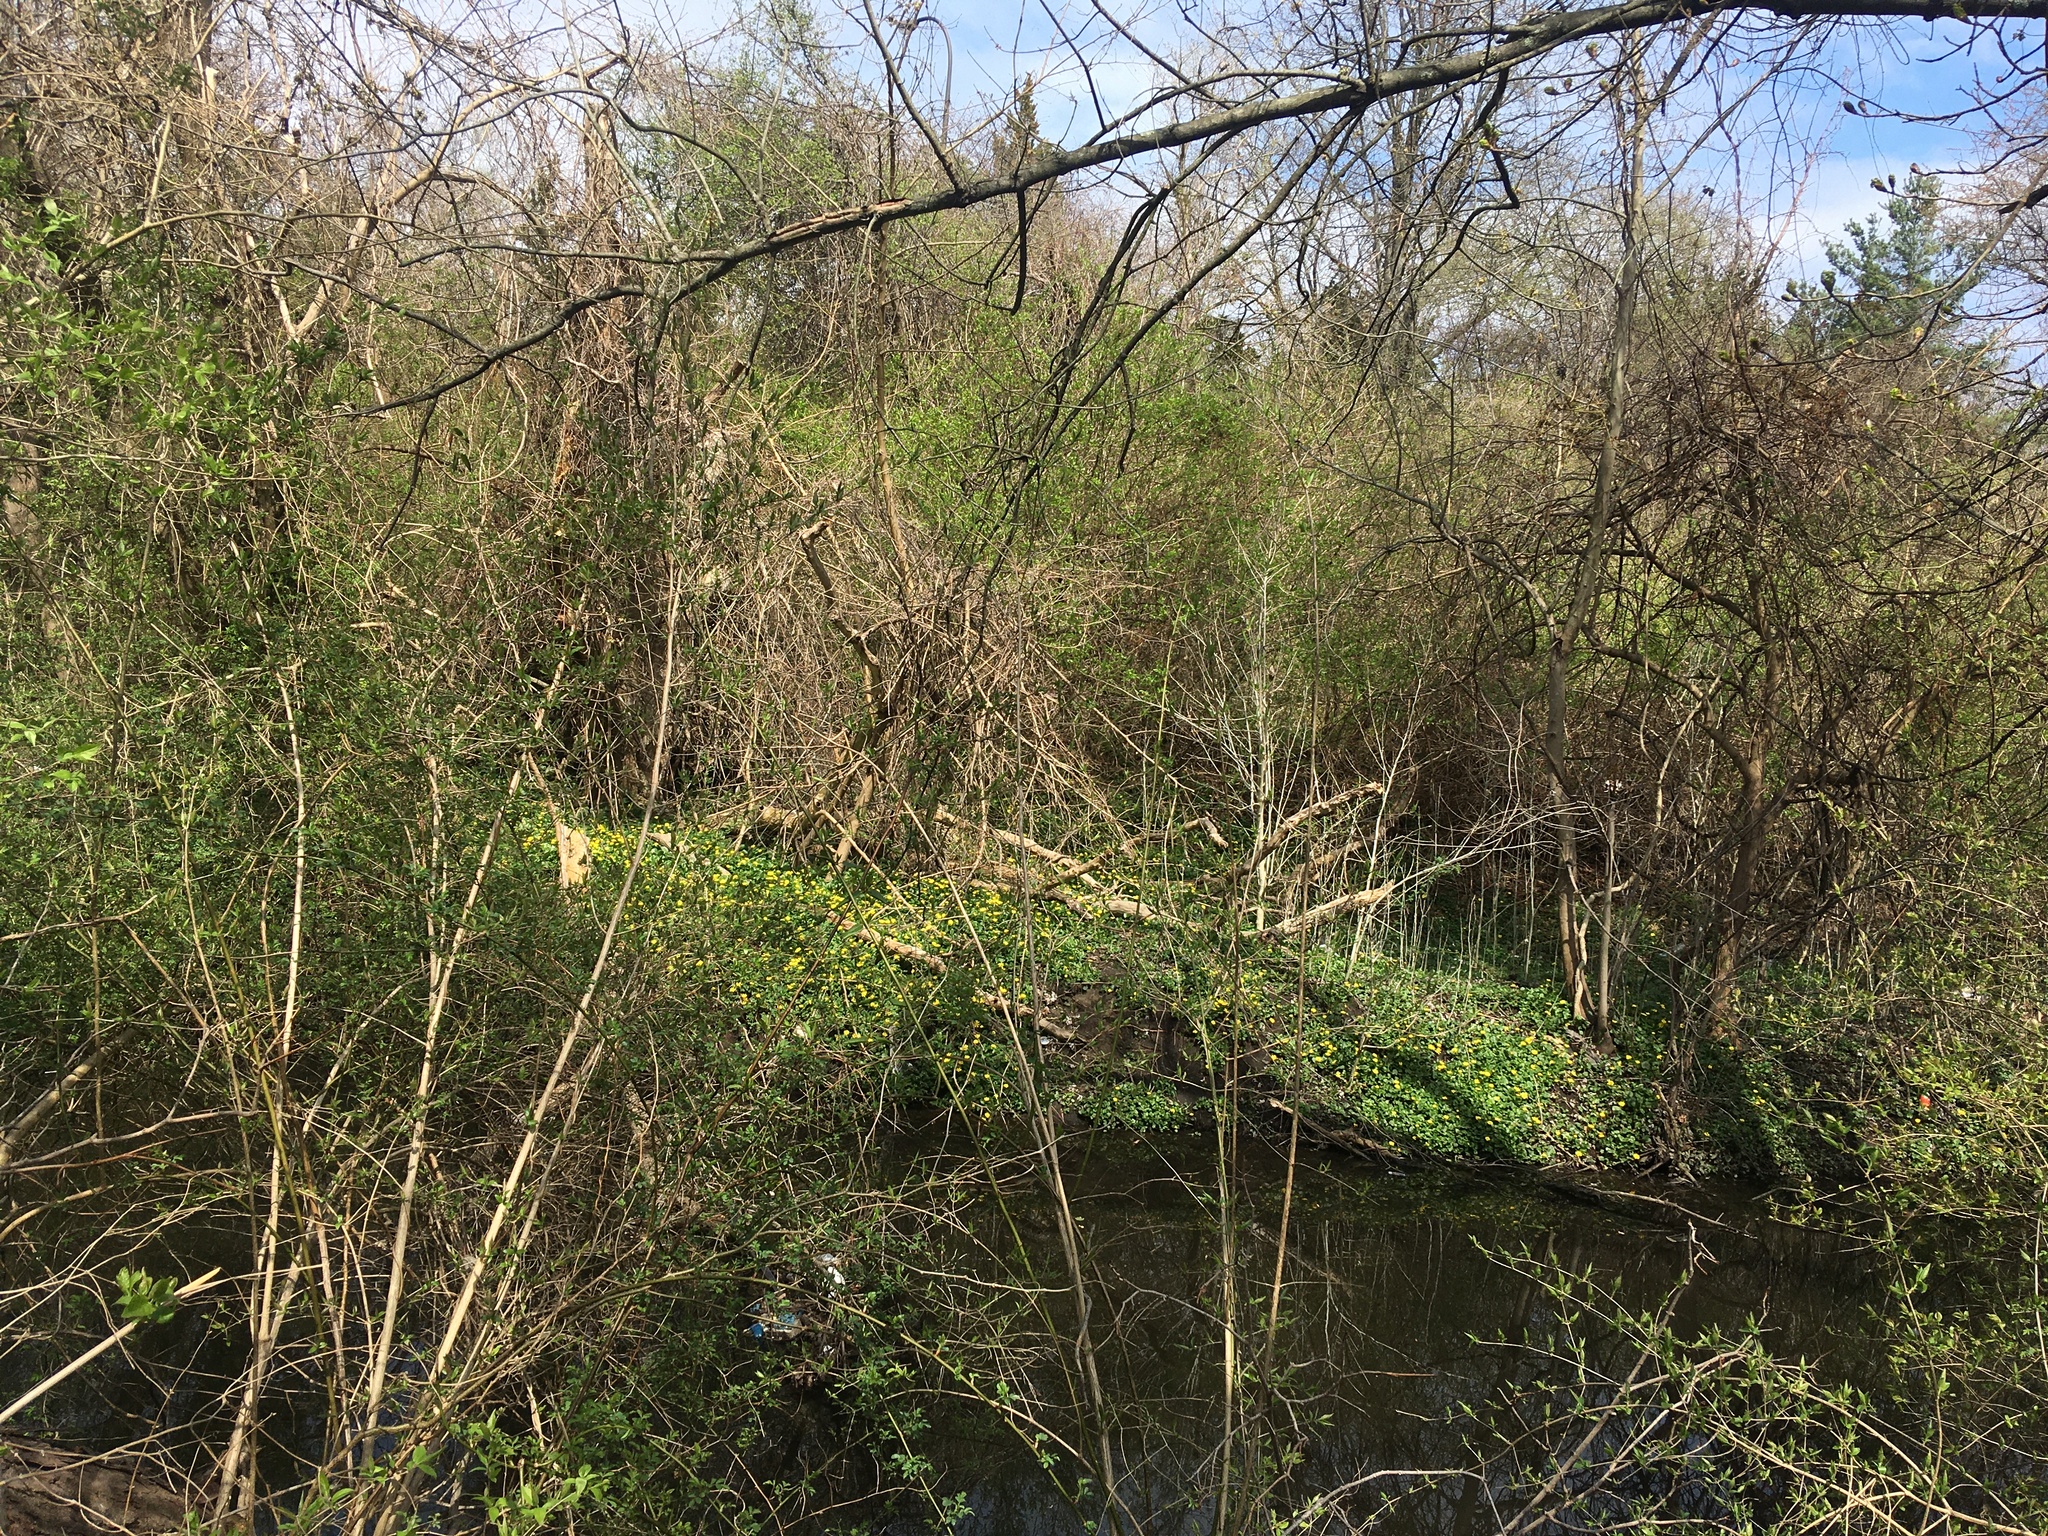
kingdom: Plantae
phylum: Tracheophyta
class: Magnoliopsida
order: Ranunculales
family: Ranunculaceae
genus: Ficaria
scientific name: Ficaria verna
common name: Lesser celandine
